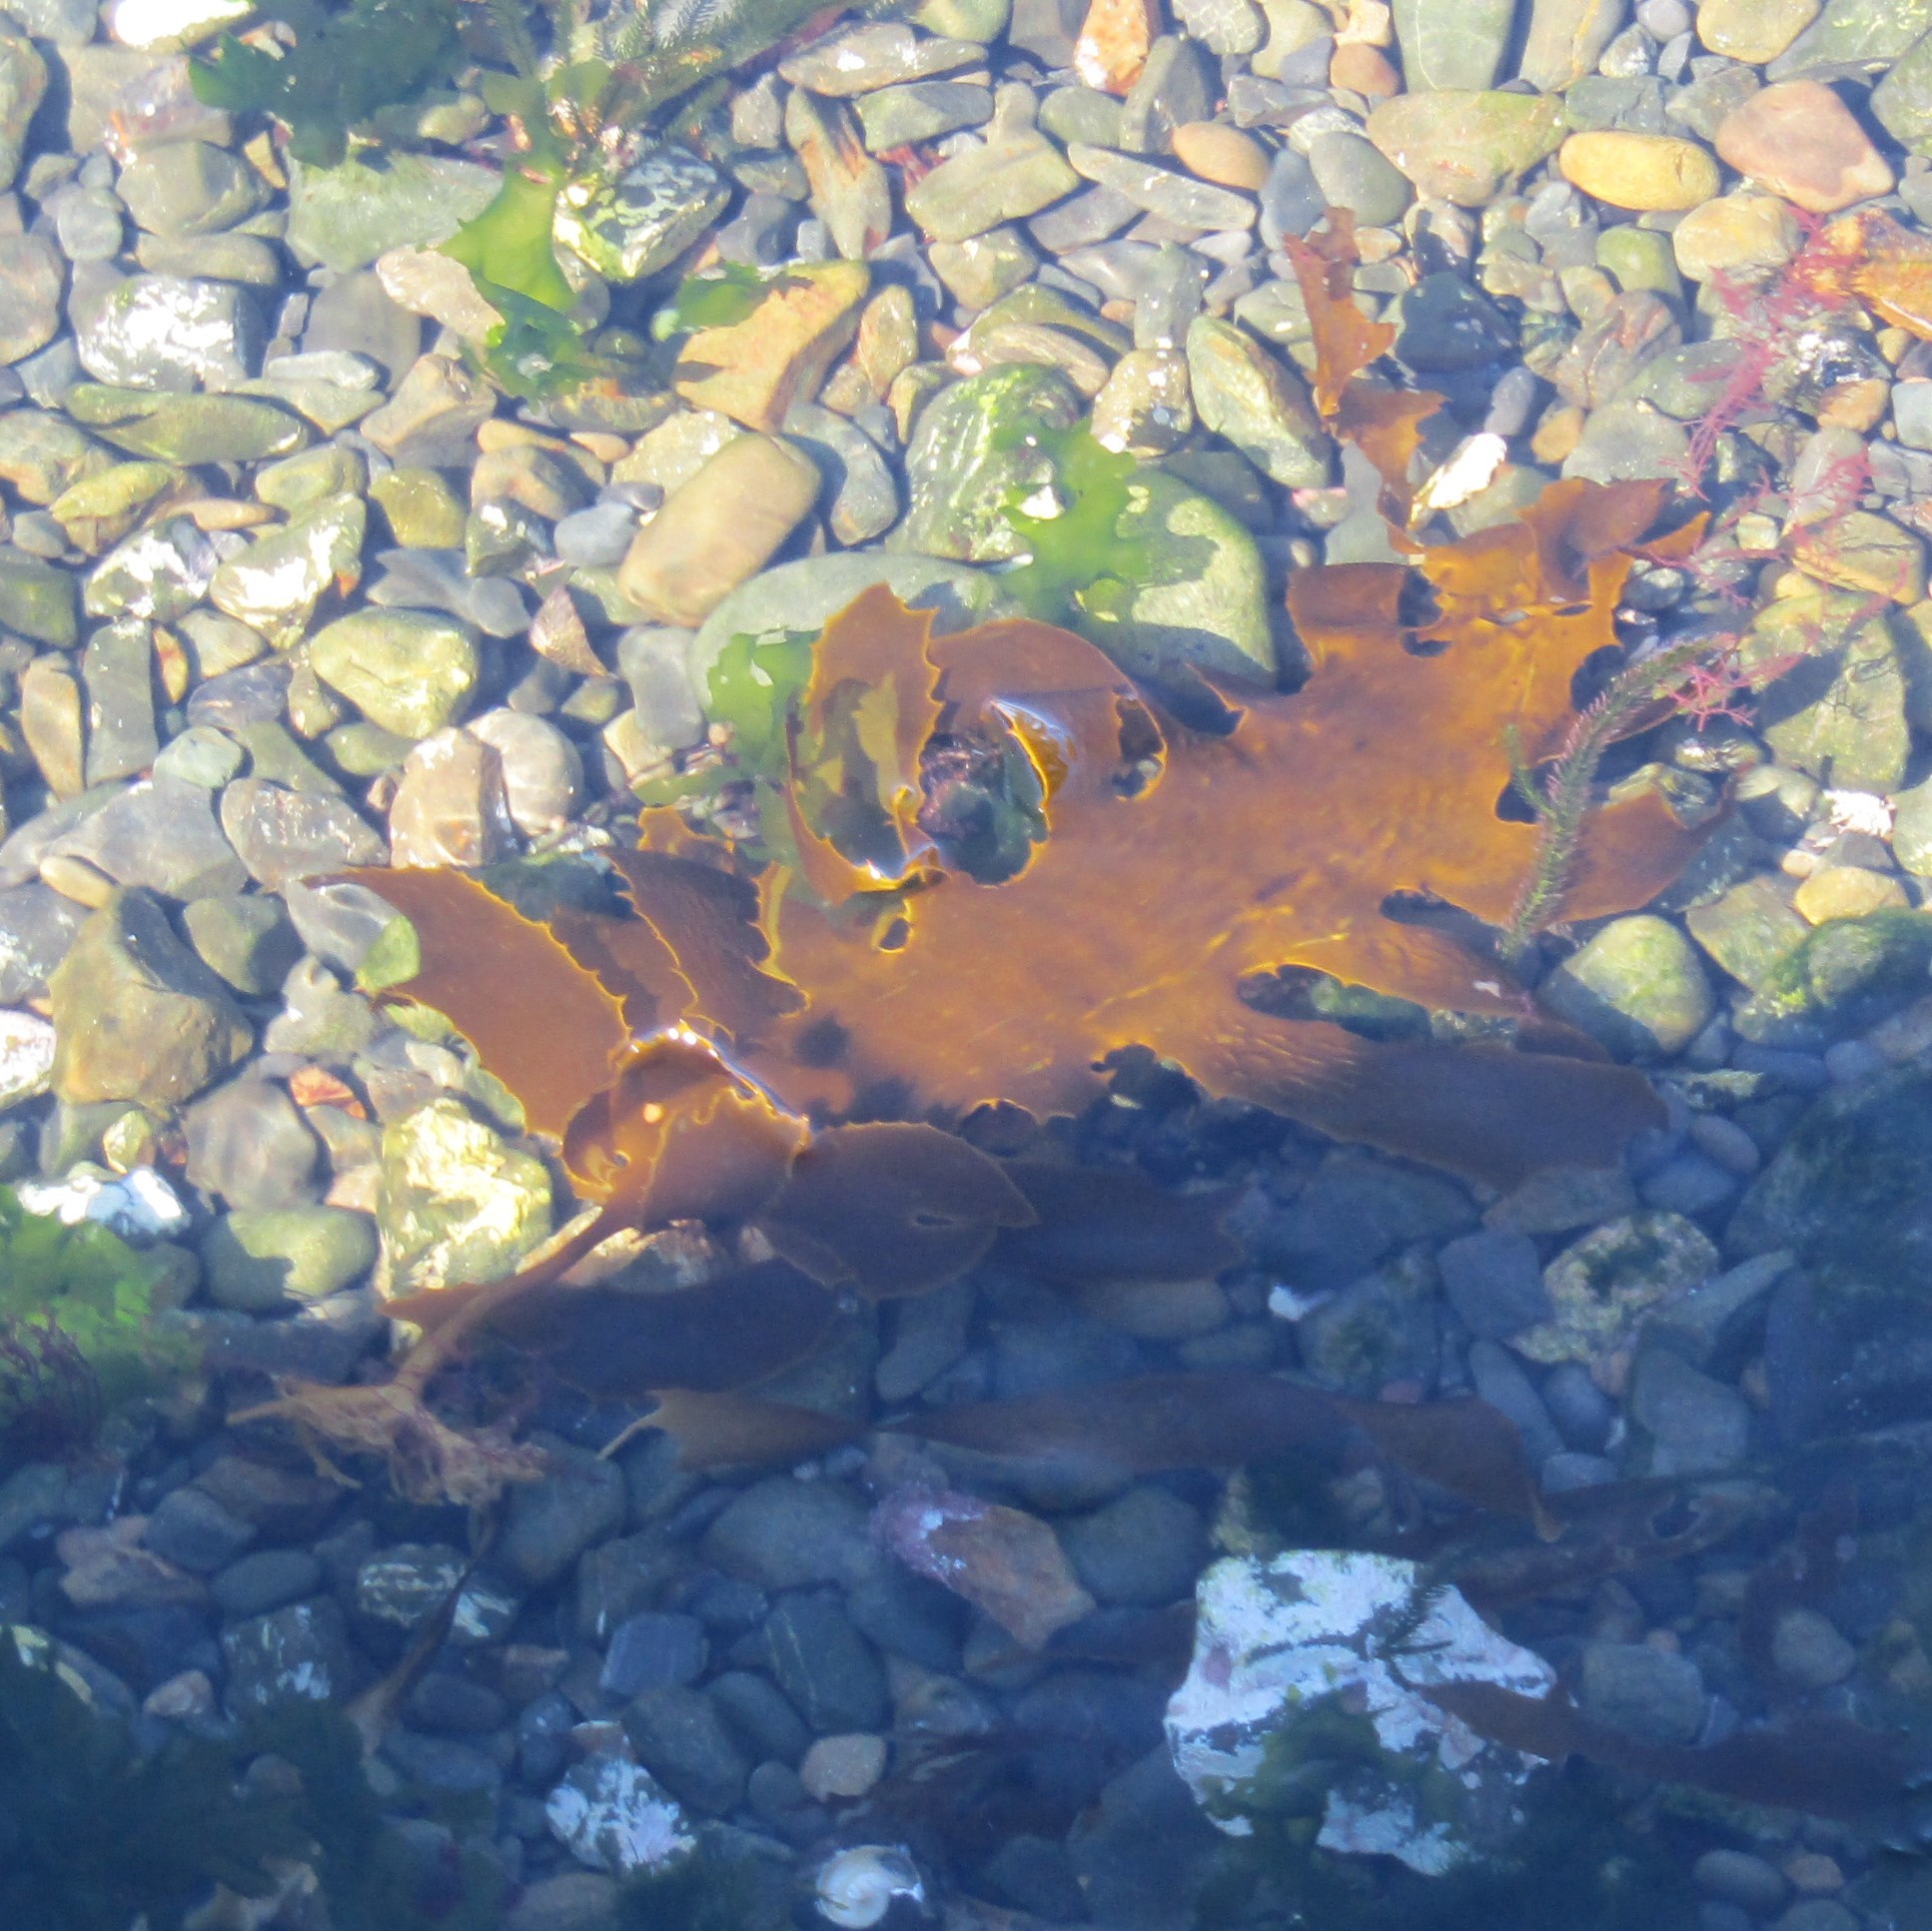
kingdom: Chromista
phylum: Ochrophyta
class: Phaeophyceae
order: Laminariales
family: Lessoniaceae
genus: Ecklonia
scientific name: Ecklonia radiata
